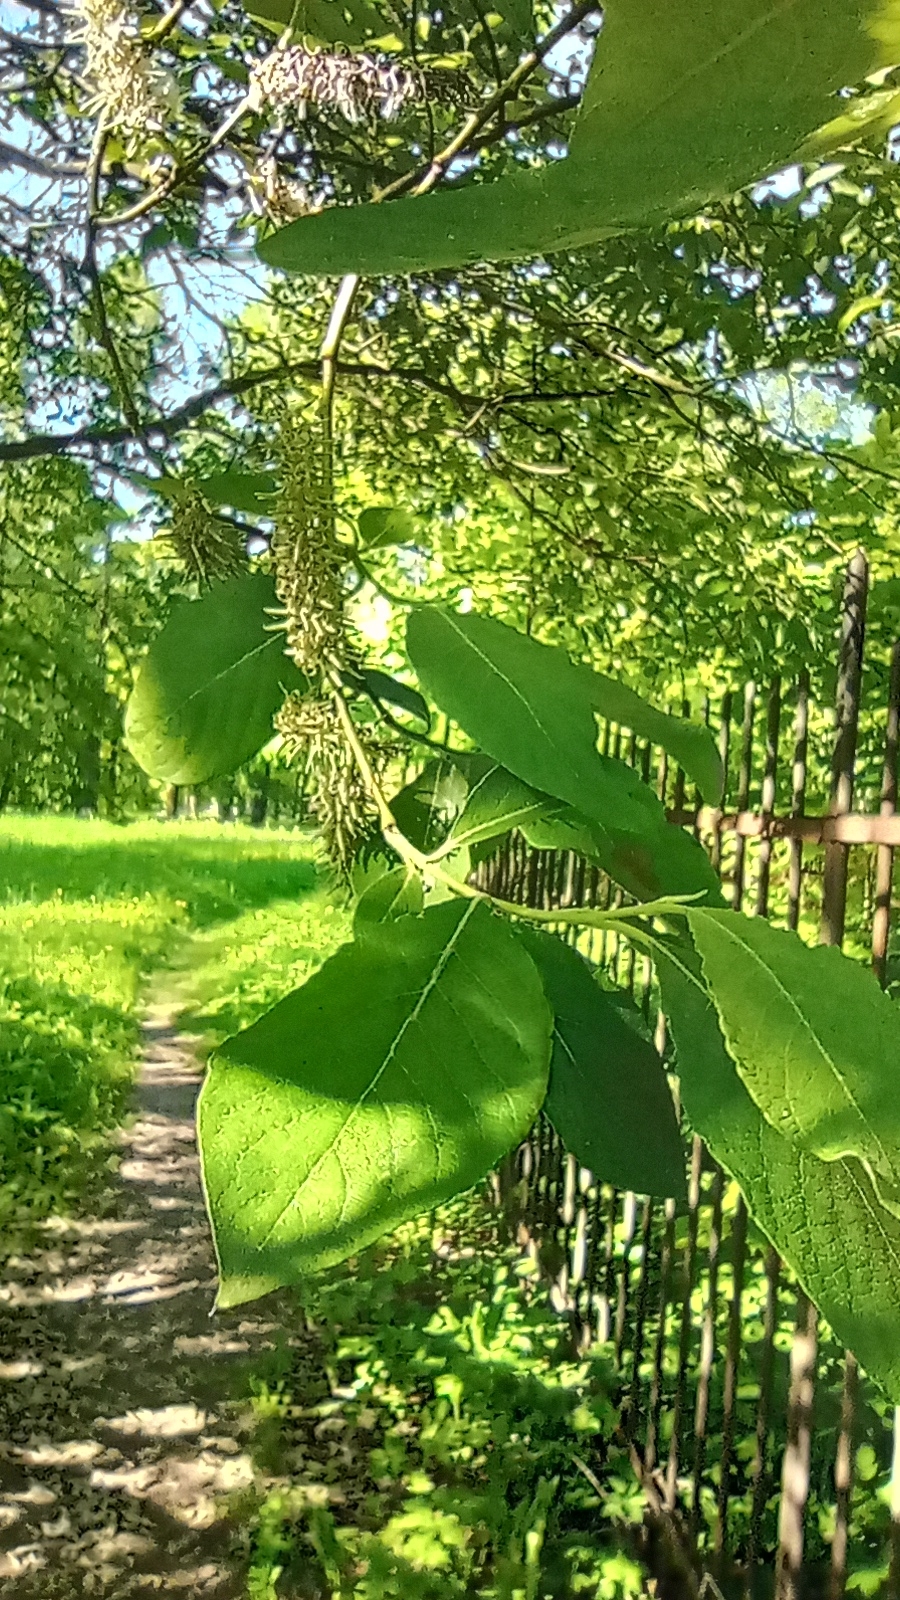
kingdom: Plantae
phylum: Tracheophyta
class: Magnoliopsida
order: Malpighiales
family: Salicaceae
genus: Salix
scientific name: Salix caprea
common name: Goat willow
